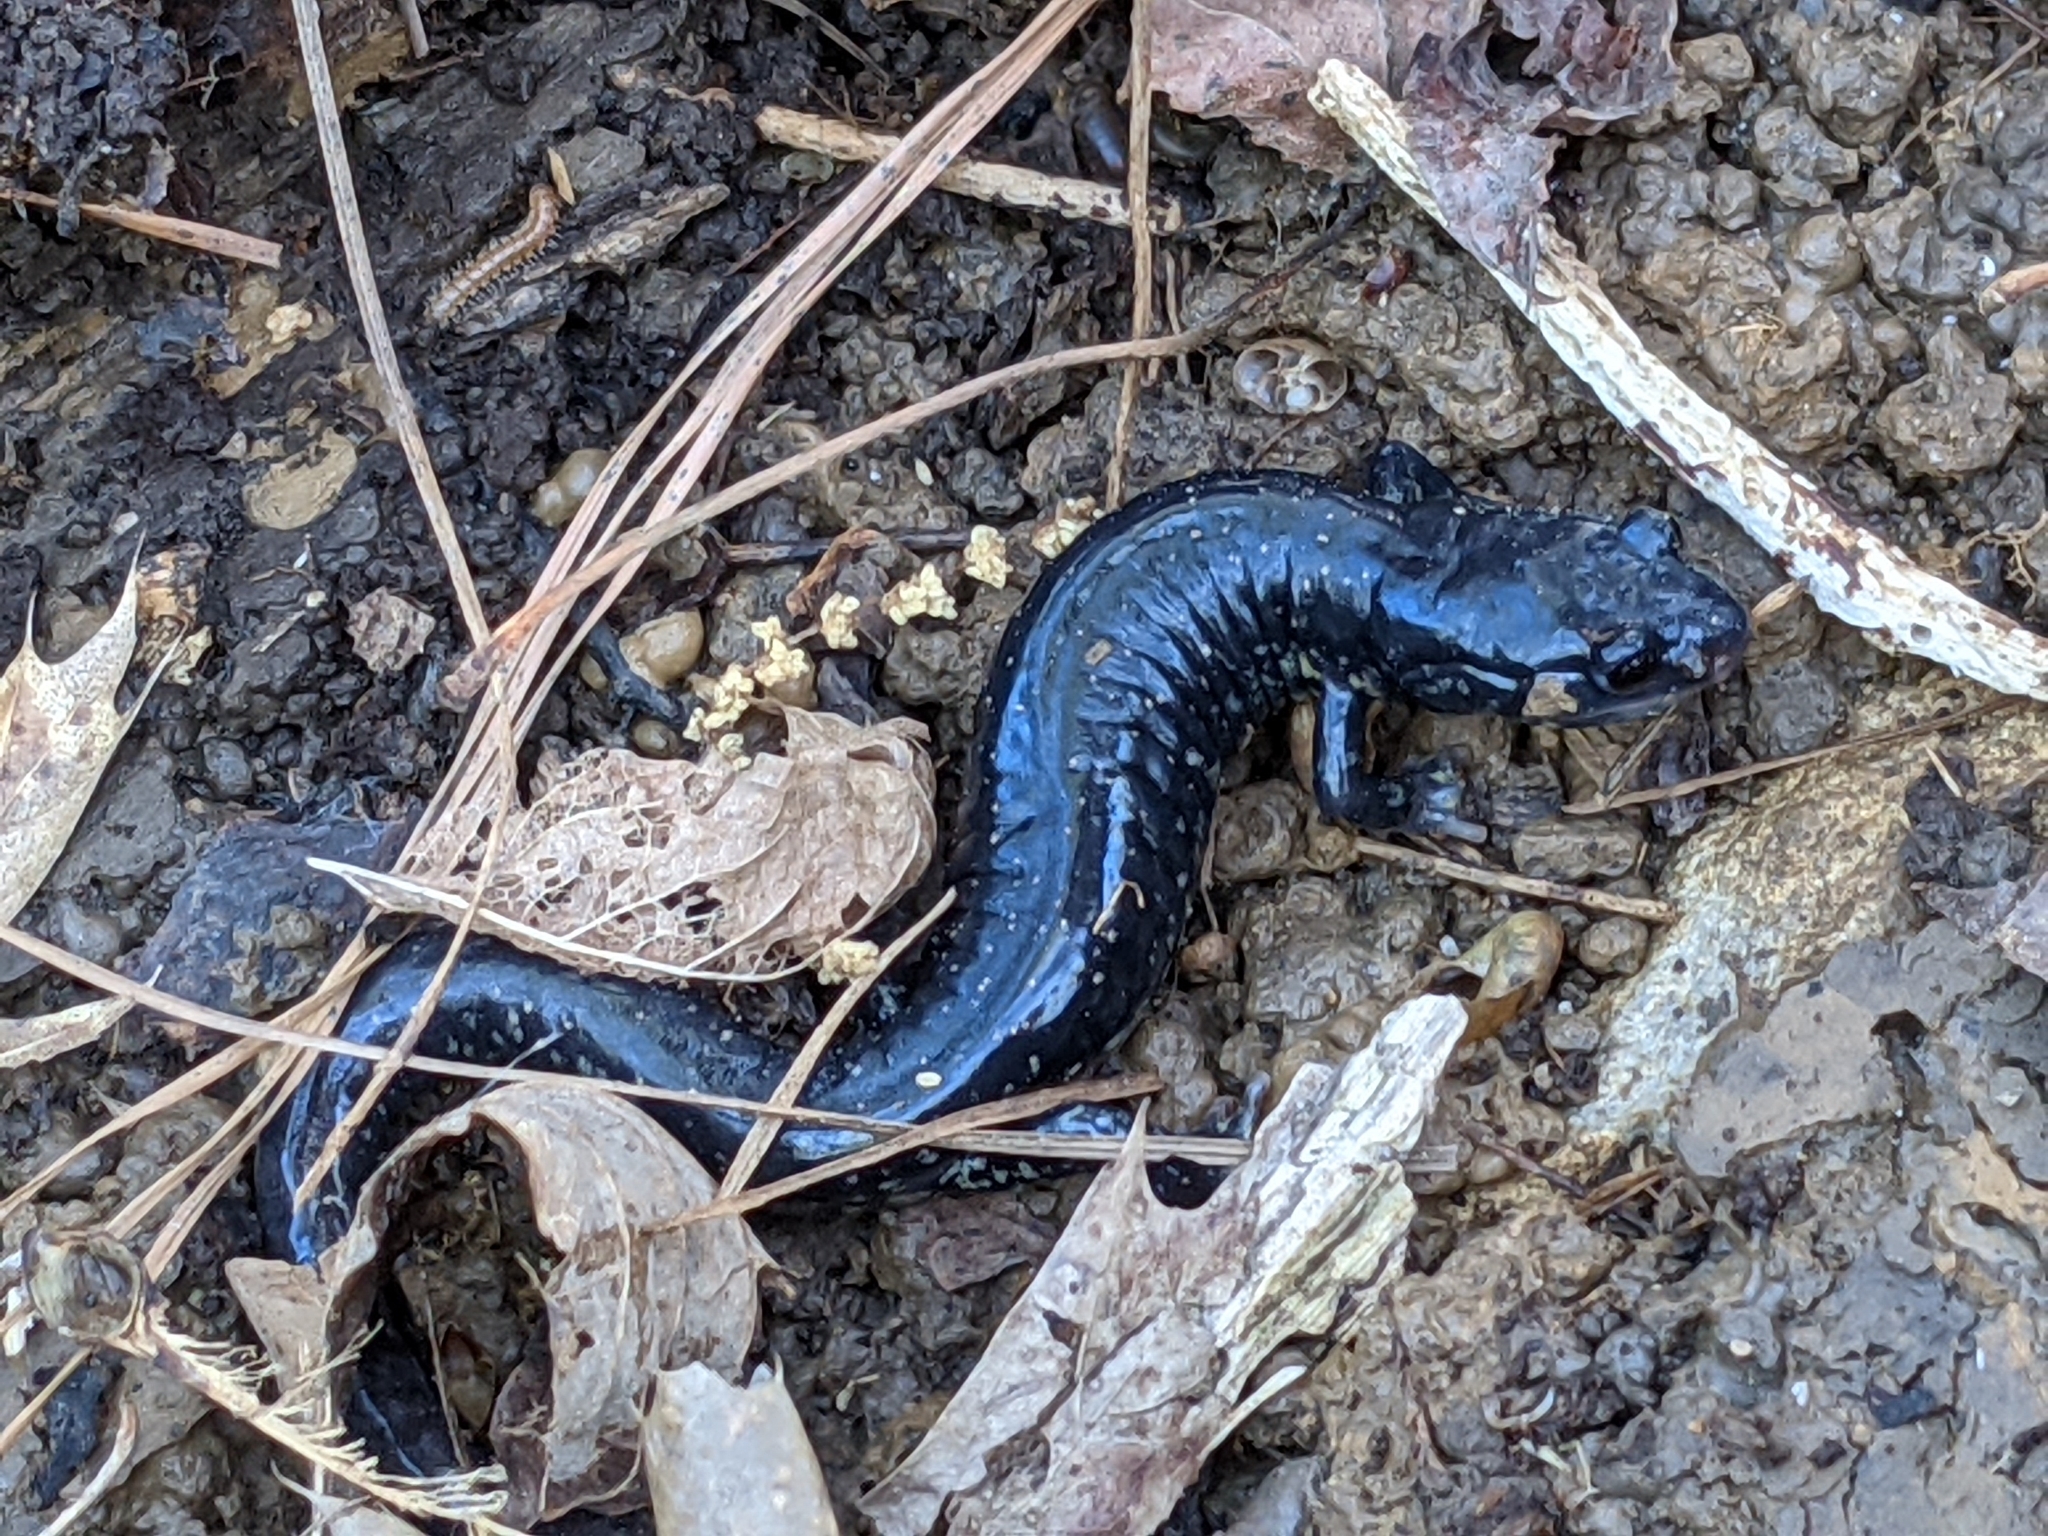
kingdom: Animalia
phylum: Chordata
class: Amphibia
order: Caudata
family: Plethodontidae
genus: Plethodon
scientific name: Plethodon glutinosus
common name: Northern slimy salamander
